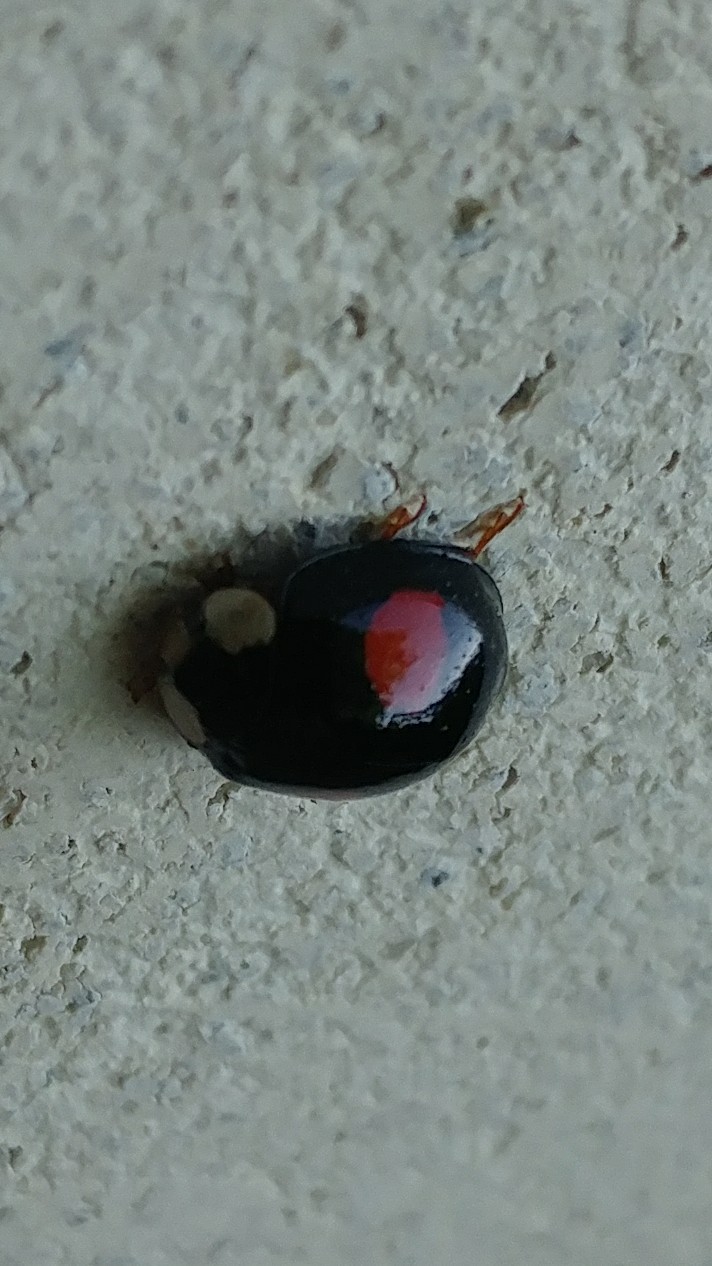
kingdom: Animalia
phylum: Arthropoda
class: Insecta
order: Coleoptera
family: Coccinellidae
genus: Harmonia
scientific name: Harmonia axyridis
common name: Harlequin ladybird
